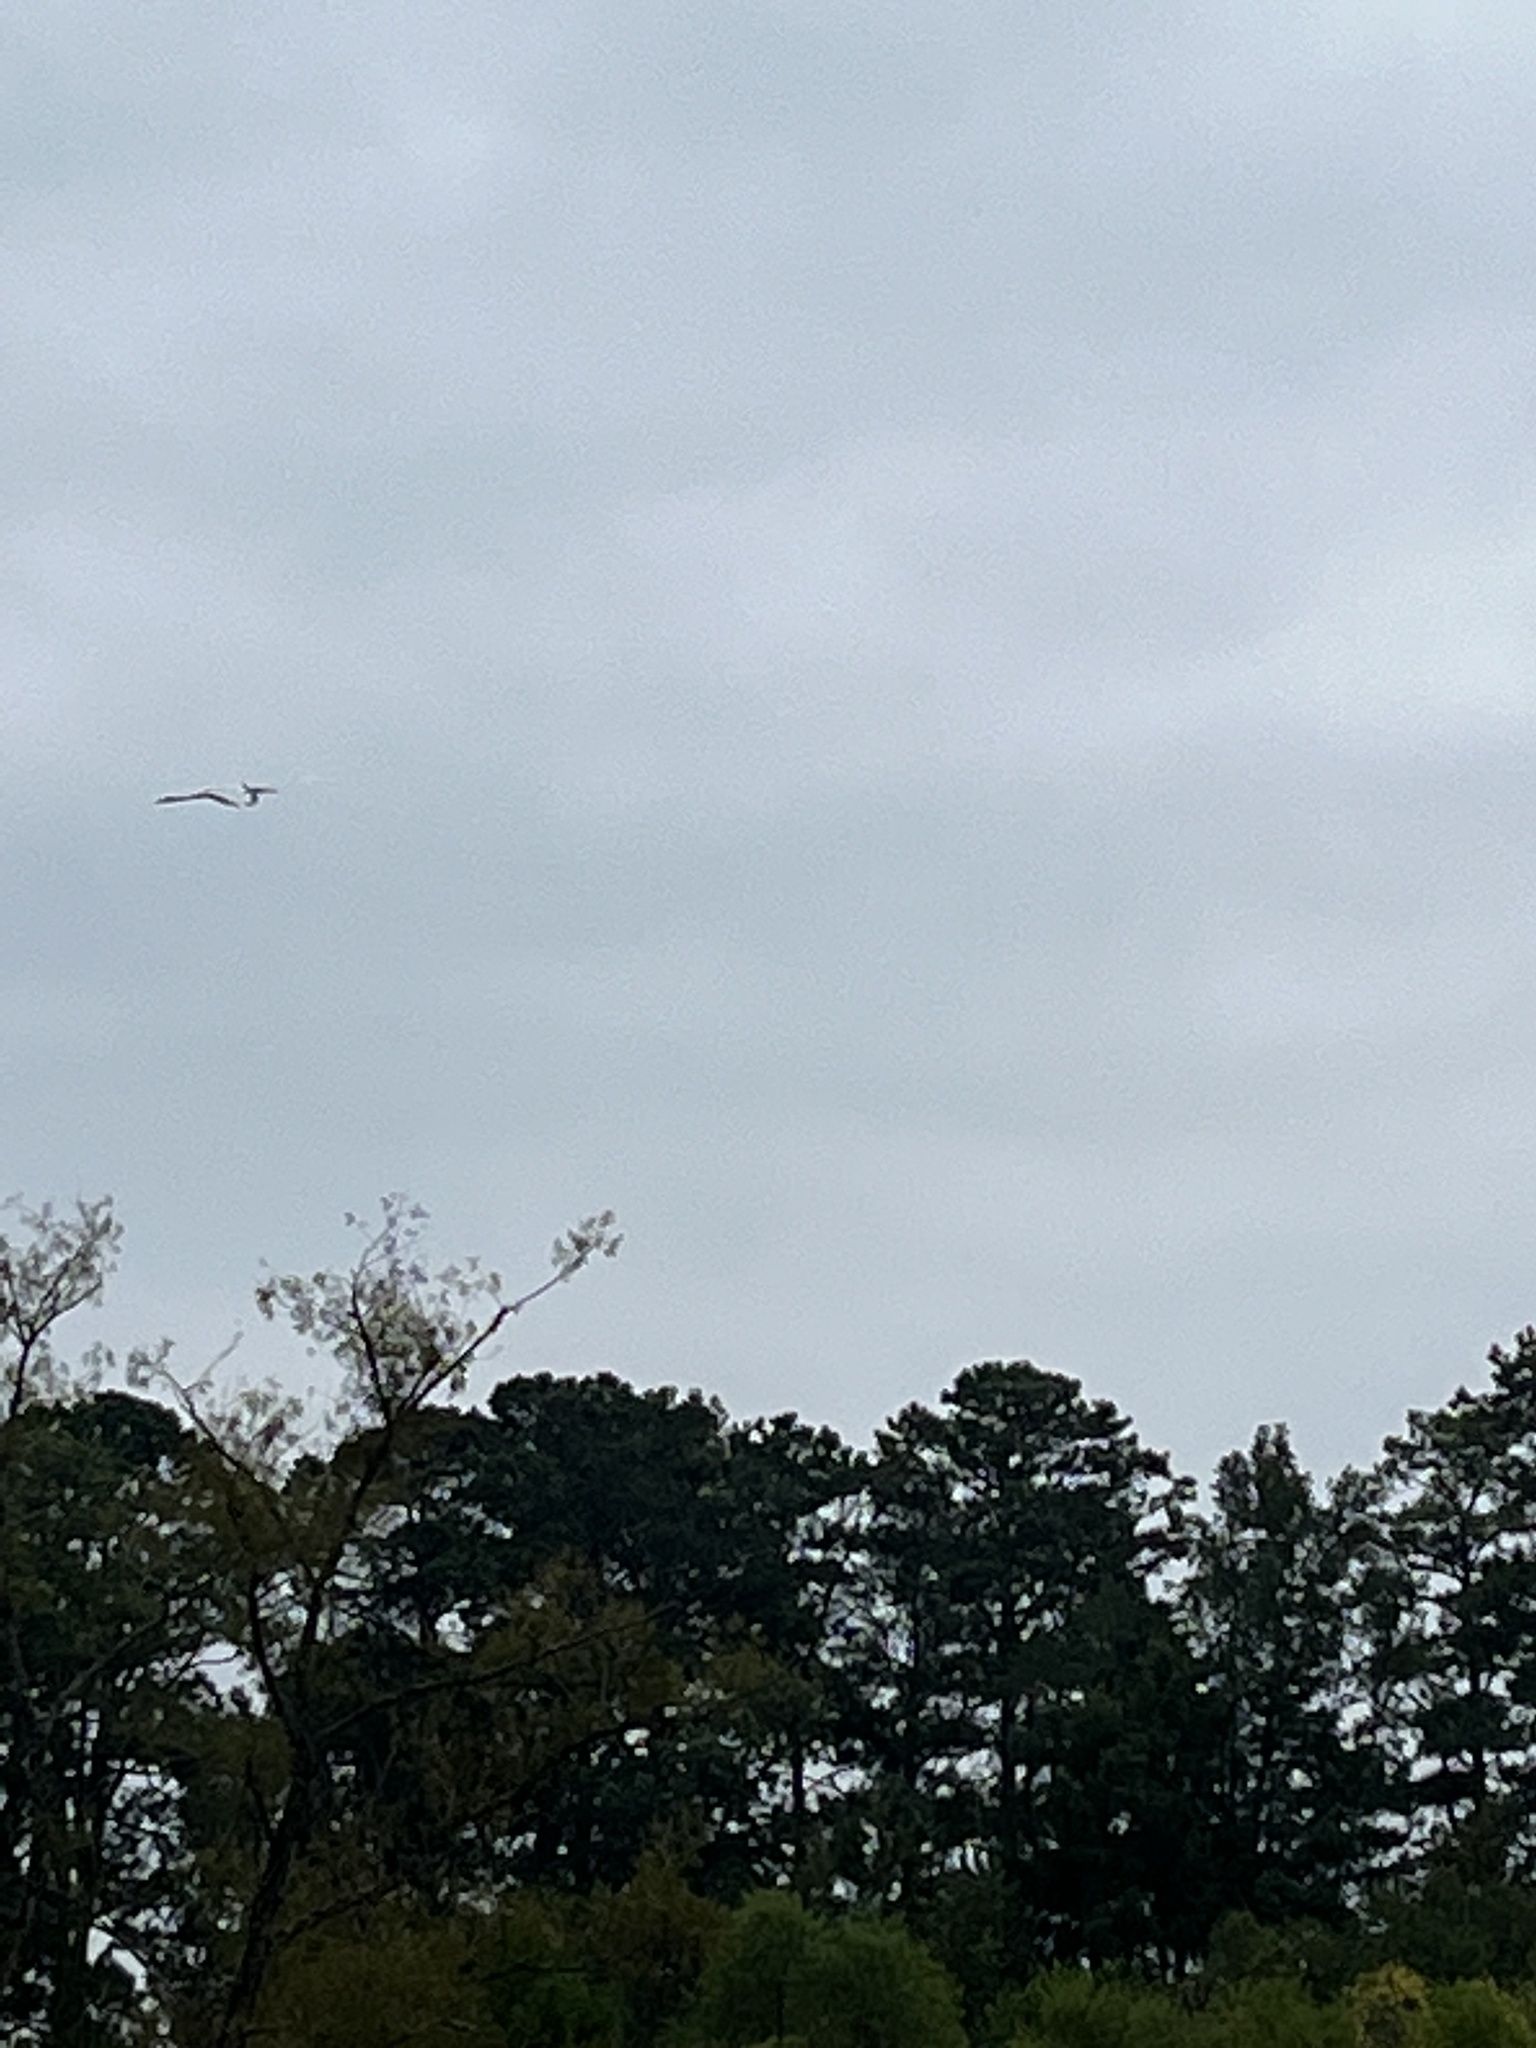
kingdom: Animalia
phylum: Chordata
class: Aves
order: Pelecaniformes
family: Ardeidae
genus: Ardea
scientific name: Ardea alba
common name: Great egret
